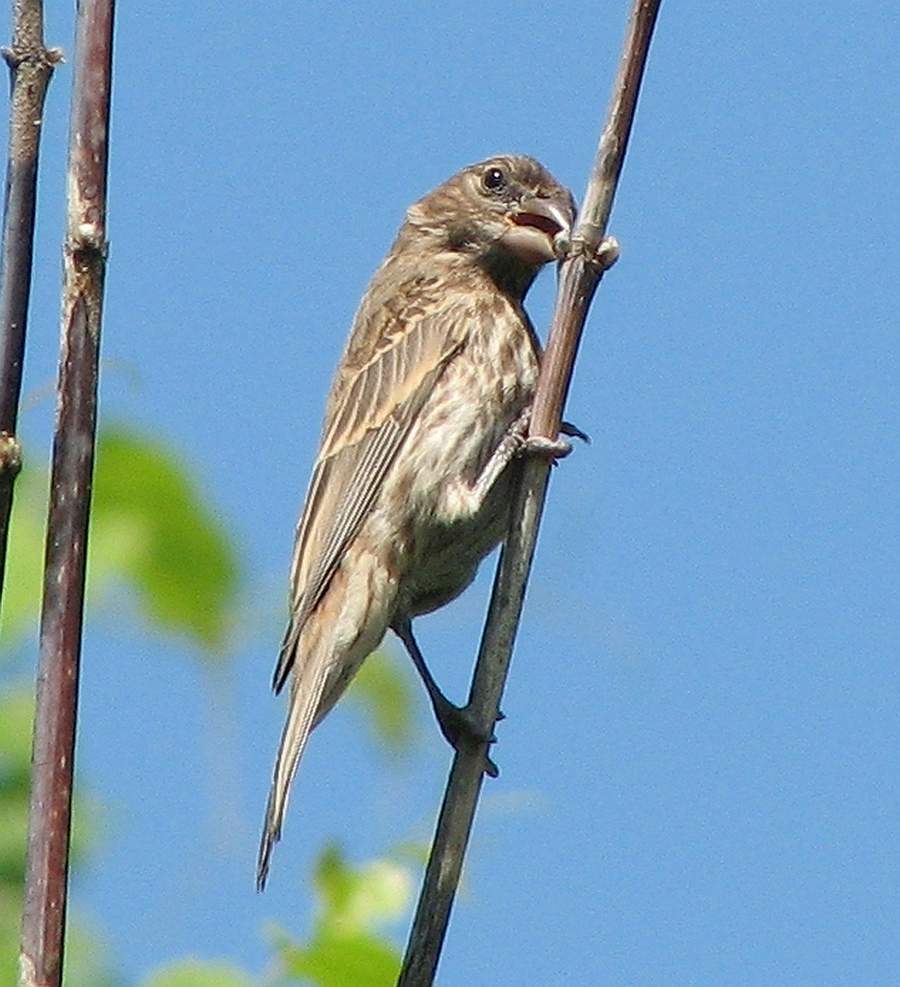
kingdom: Animalia
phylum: Chordata
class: Aves
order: Passeriformes
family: Fringillidae
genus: Haemorhous
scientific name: Haemorhous mexicanus
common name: House finch
